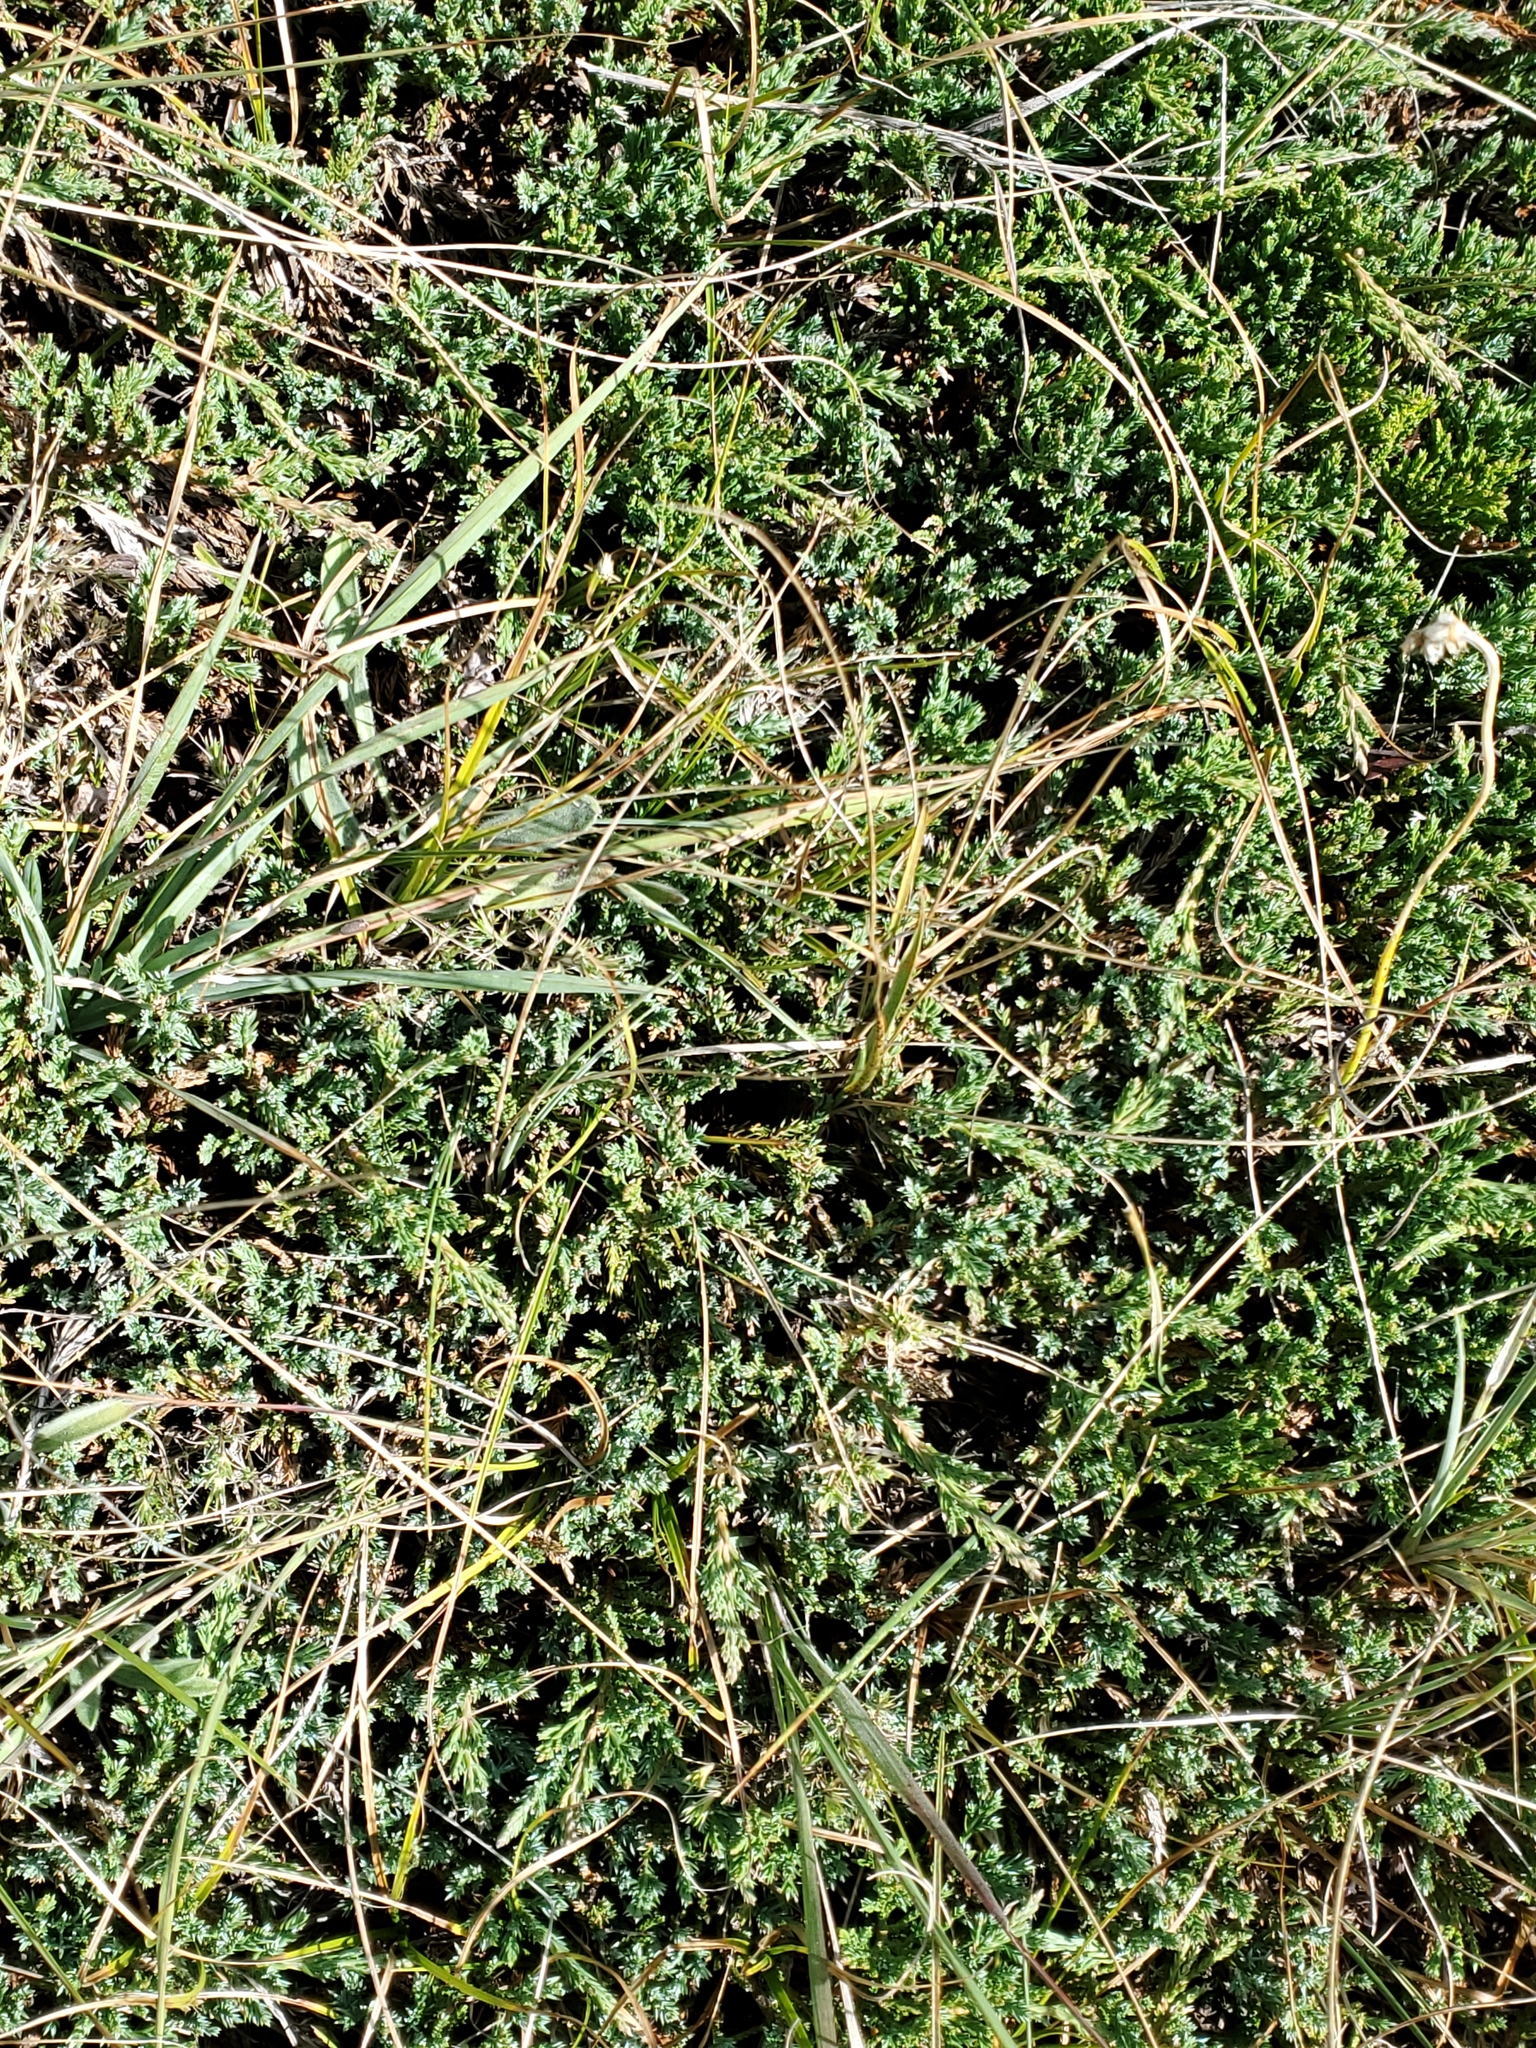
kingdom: Plantae
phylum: Tracheophyta
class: Pinopsida
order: Pinales
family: Cupressaceae
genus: Juniperus
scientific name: Juniperus horizontalis
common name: Creeping juniper
